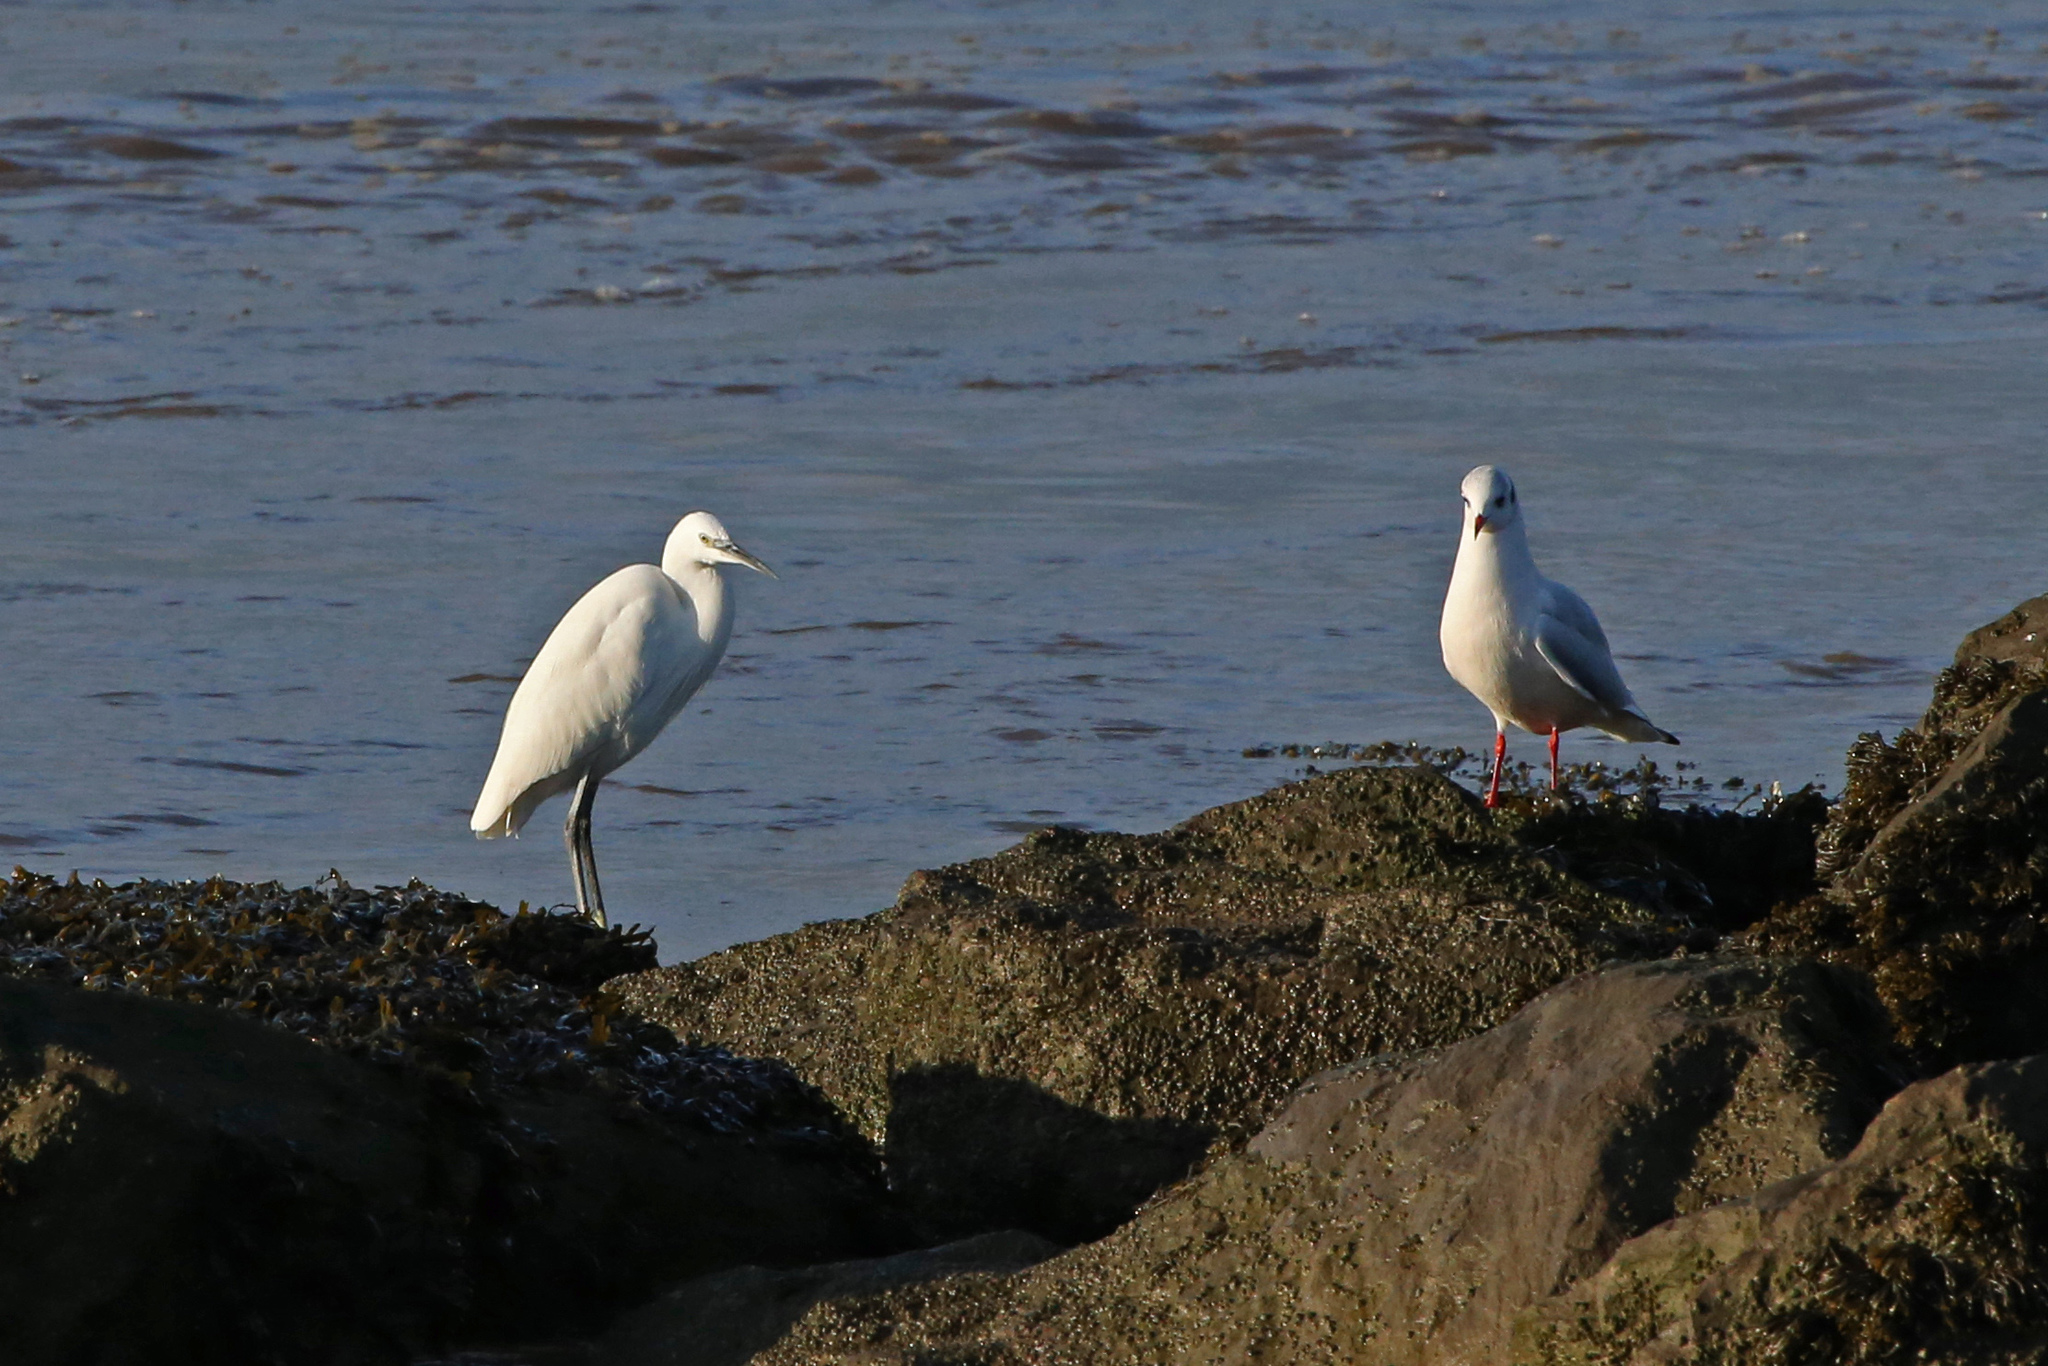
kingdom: Animalia
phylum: Chordata
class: Aves
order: Pelecaniformes
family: Ardeidae
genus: Egretta
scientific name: Egretta garzetta
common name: Little egret
